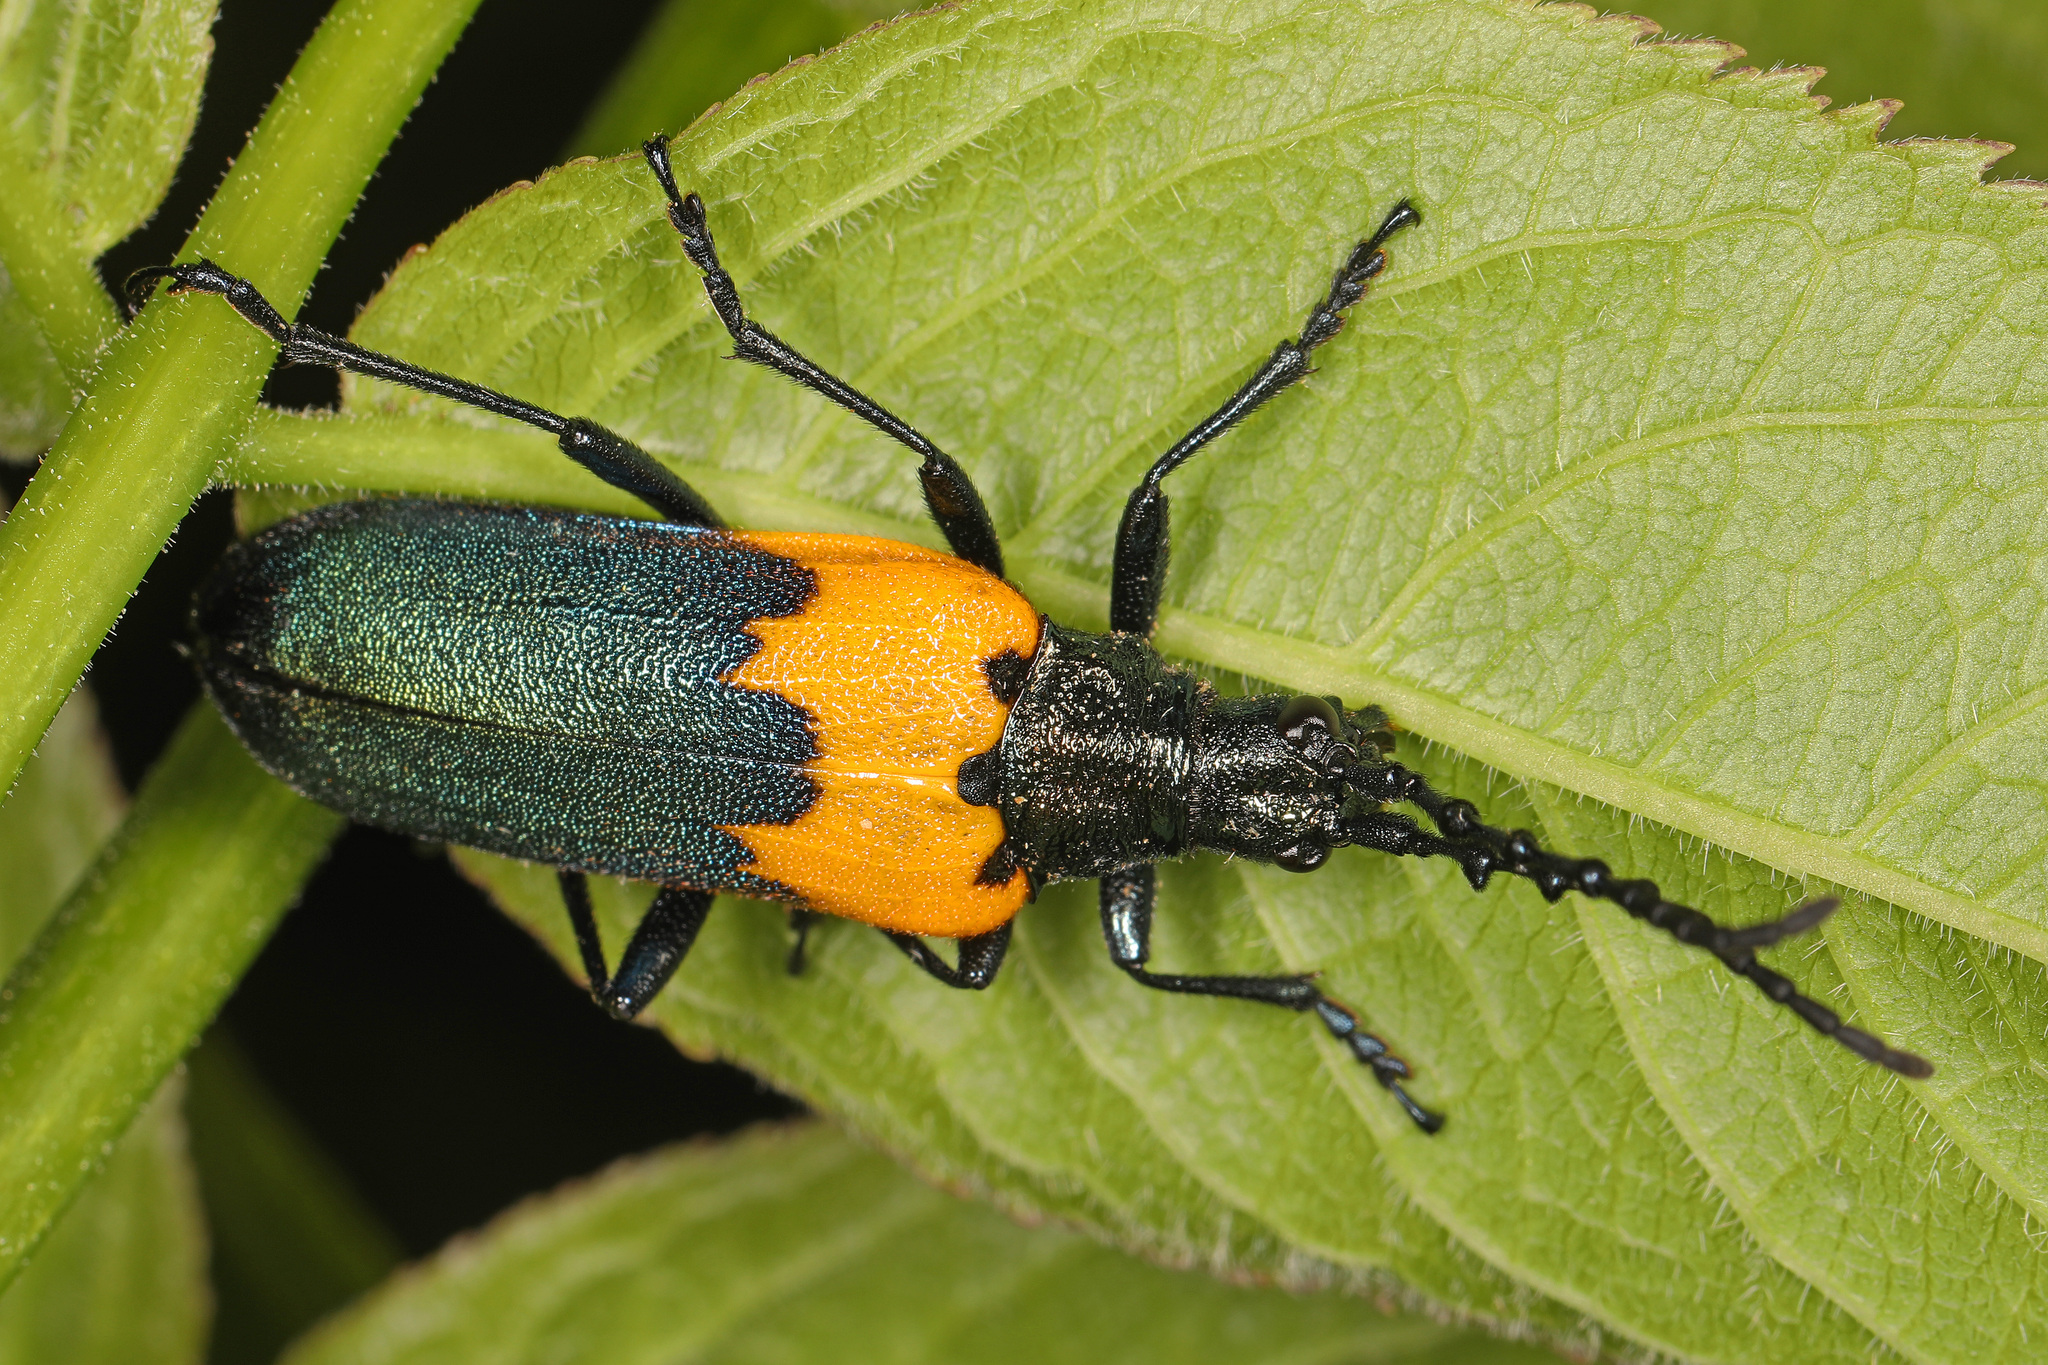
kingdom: Animalia
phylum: Arthropoda
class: Insecta
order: Coleoptera
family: Cerambycidae
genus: Desmocerus
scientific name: Desmocerus palliatus
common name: Eastern elderberry borer
